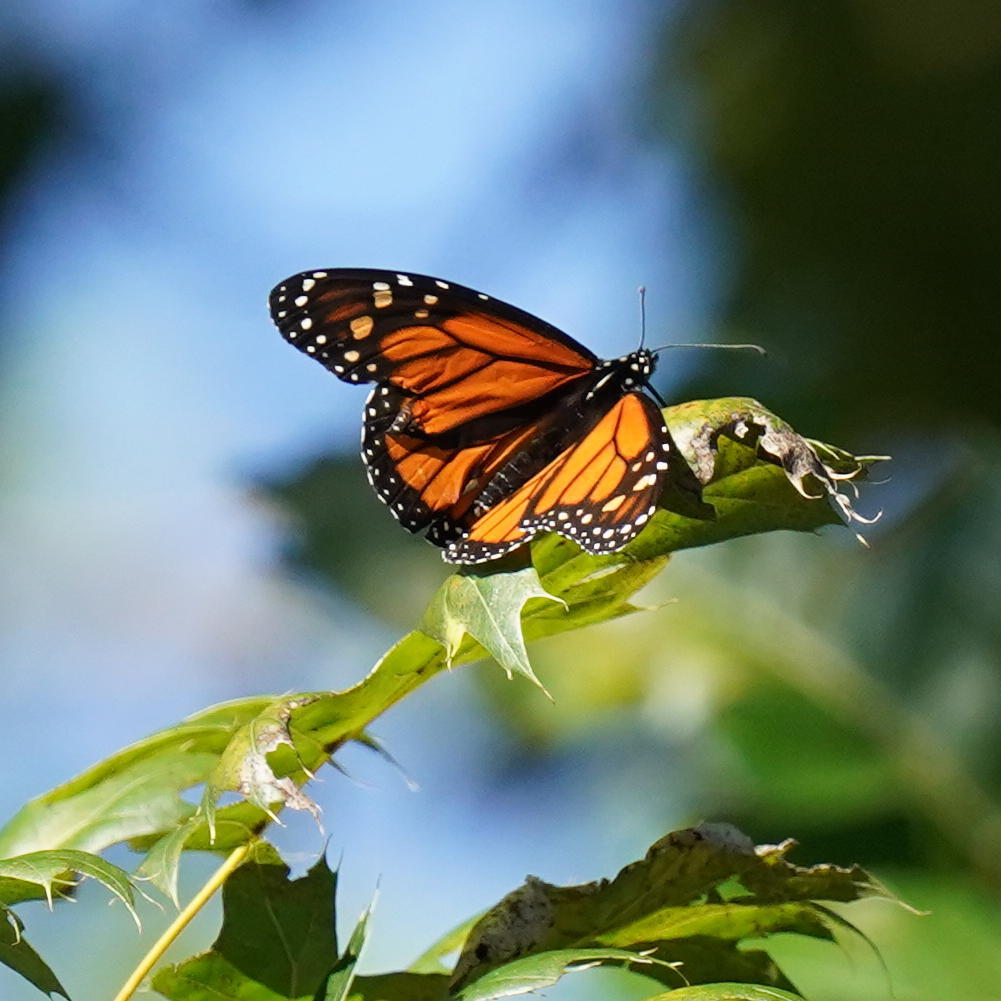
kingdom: Animalia
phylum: Arthropoda
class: Insecta
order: Lepidoptera
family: Nymphalidae
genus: Danaus
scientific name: Danaus plexippus
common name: Monarch
